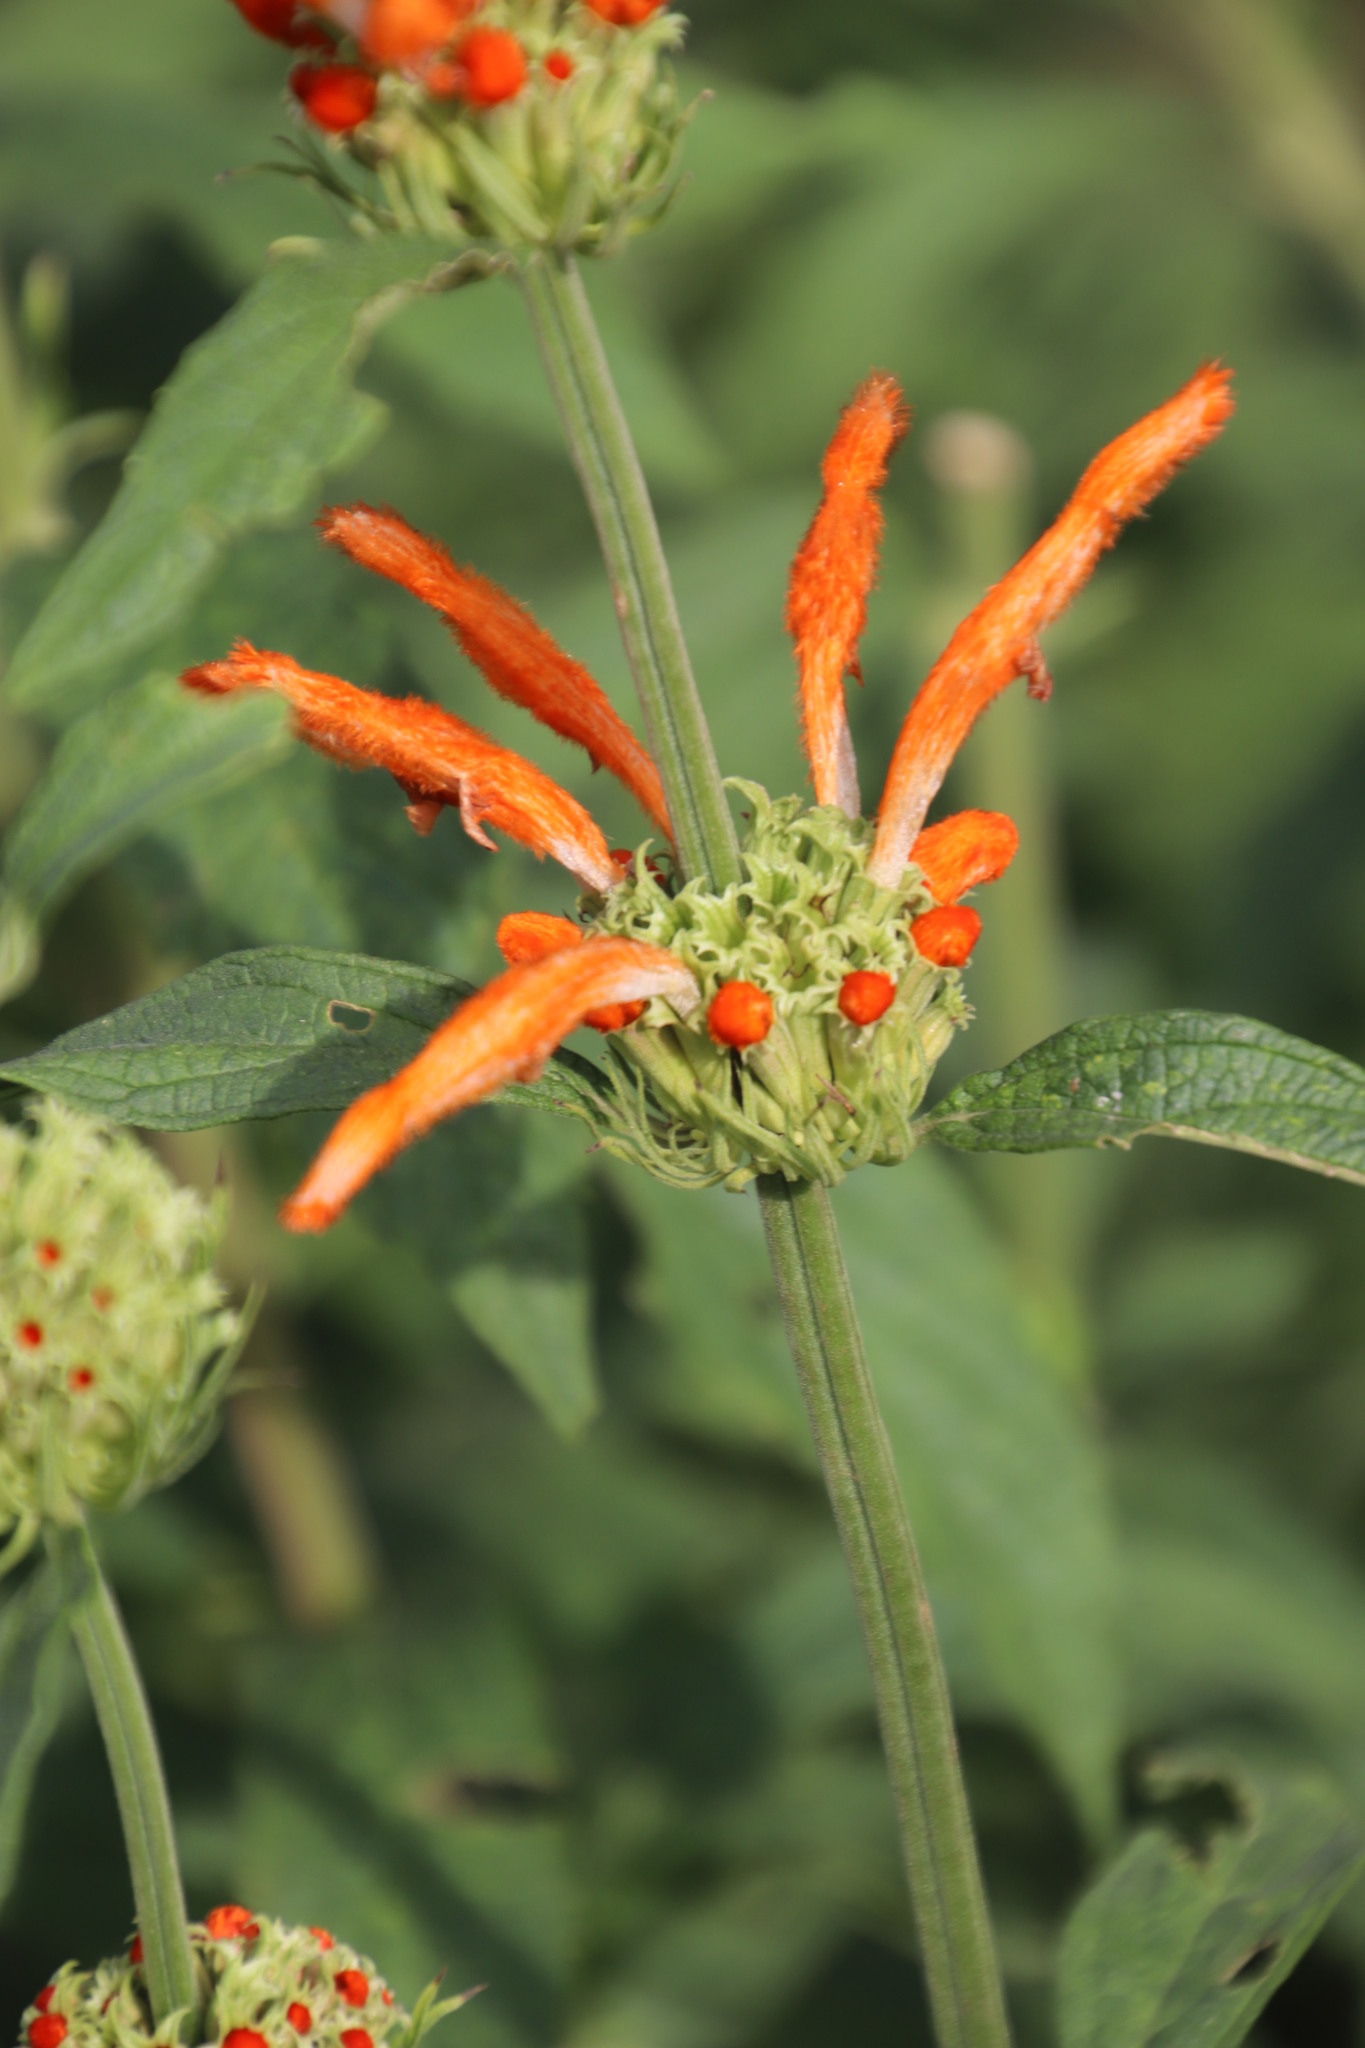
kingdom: Plantae
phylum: Tracheophyta
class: Magnoliopsida
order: Lamiales
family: Lamiaceae
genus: Leonotis
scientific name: Leonotis leonurus
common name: Lion's ear
